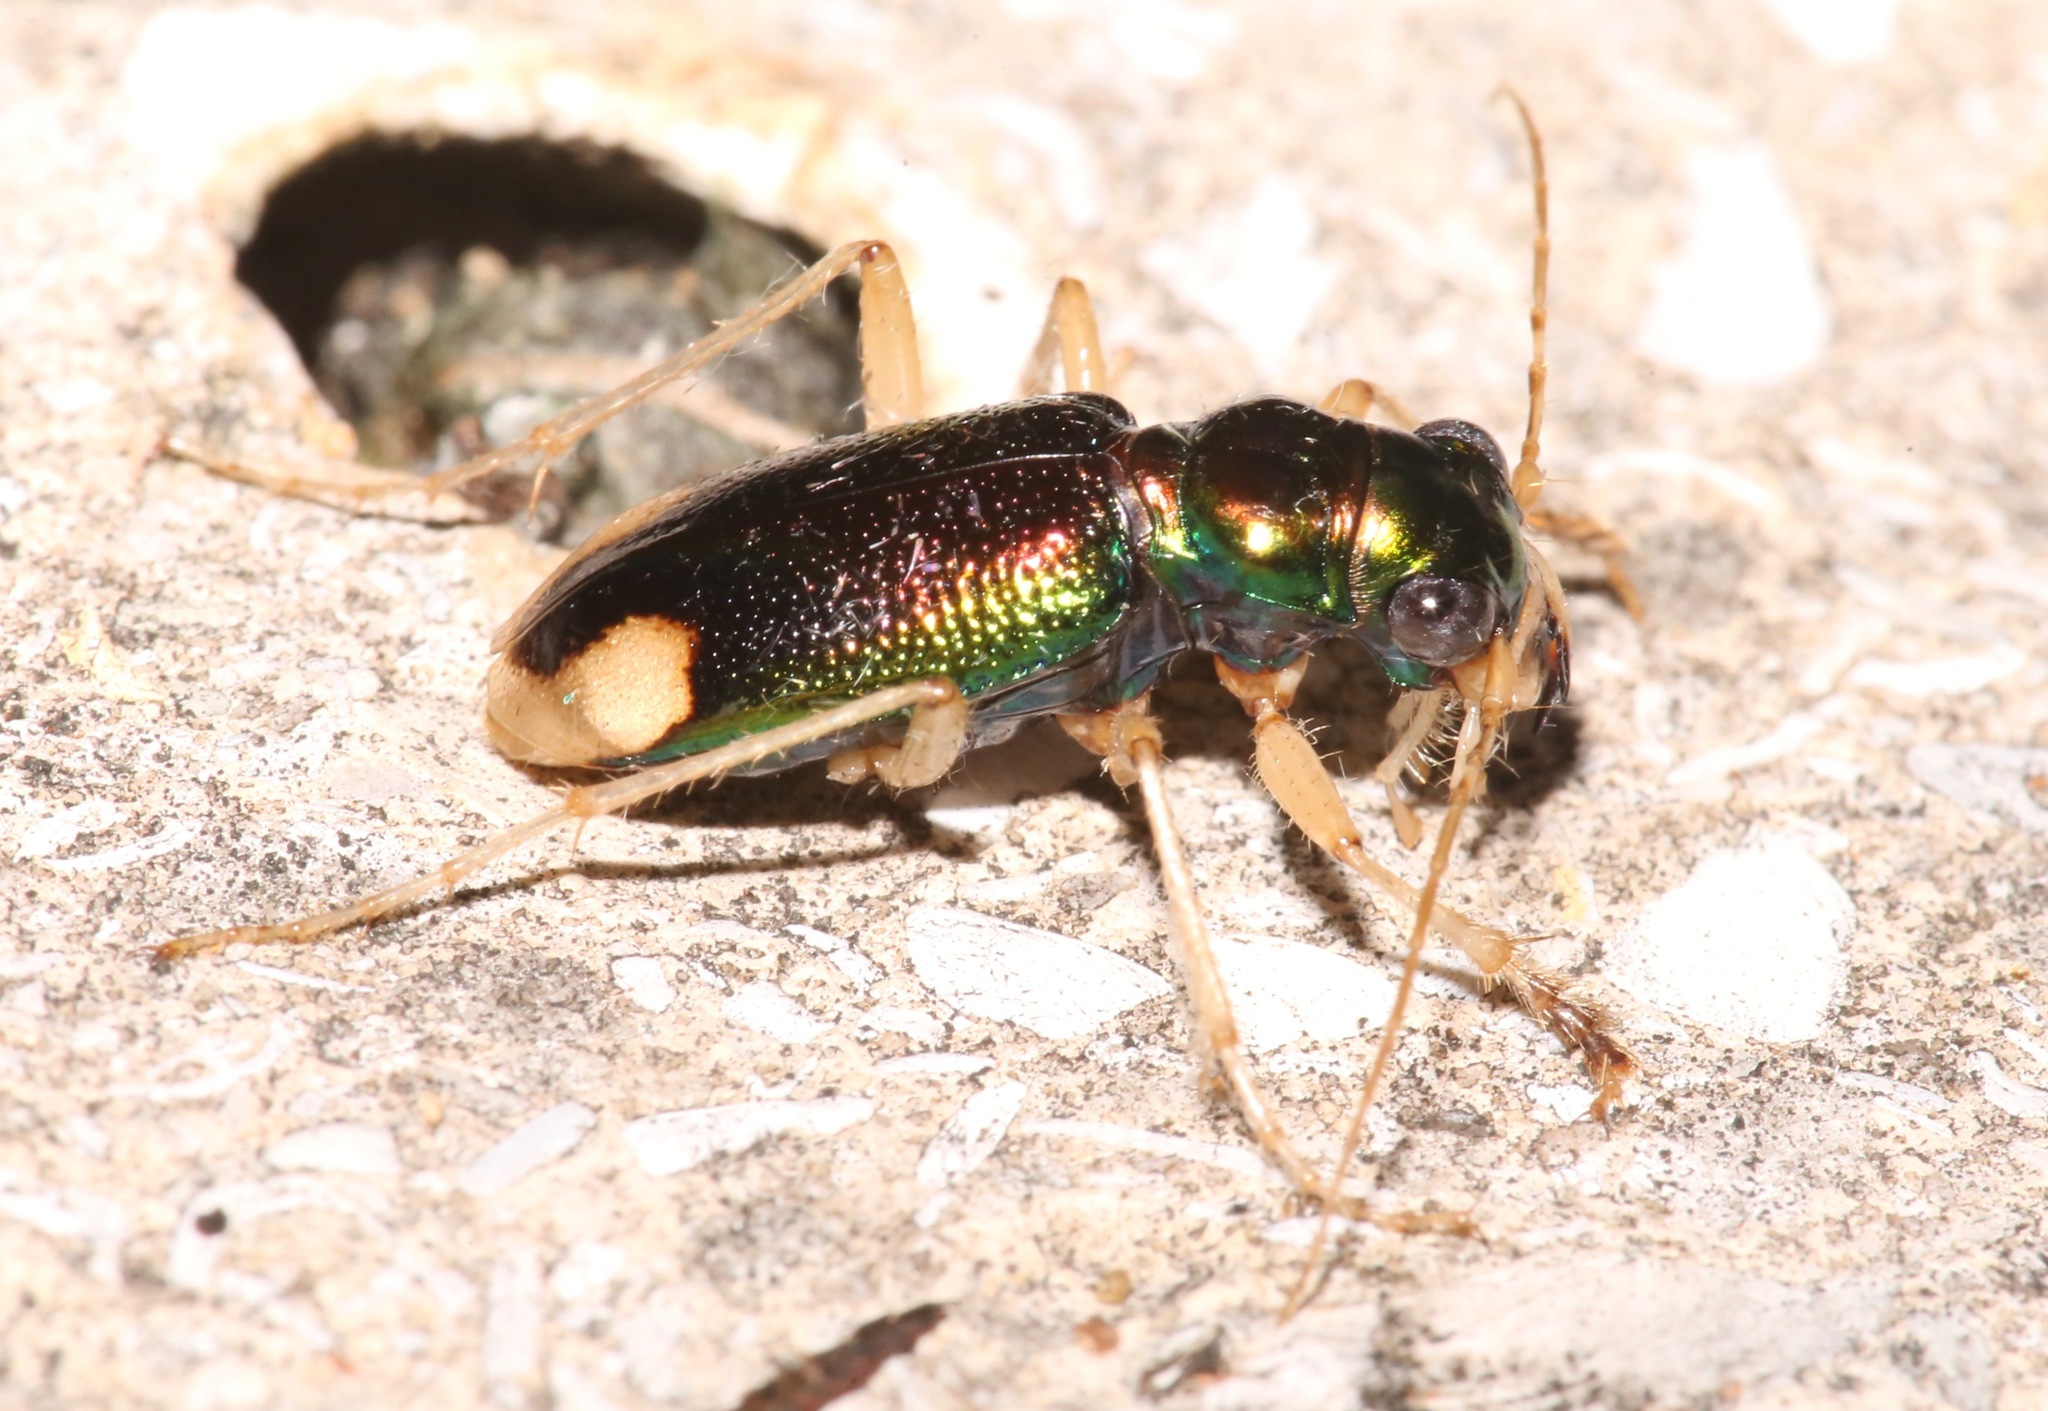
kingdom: Animalia
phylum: Arthropoda
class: Insecta
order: Coleoptera
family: Carabidae
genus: Tetracha
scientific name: Tetracha carolina
